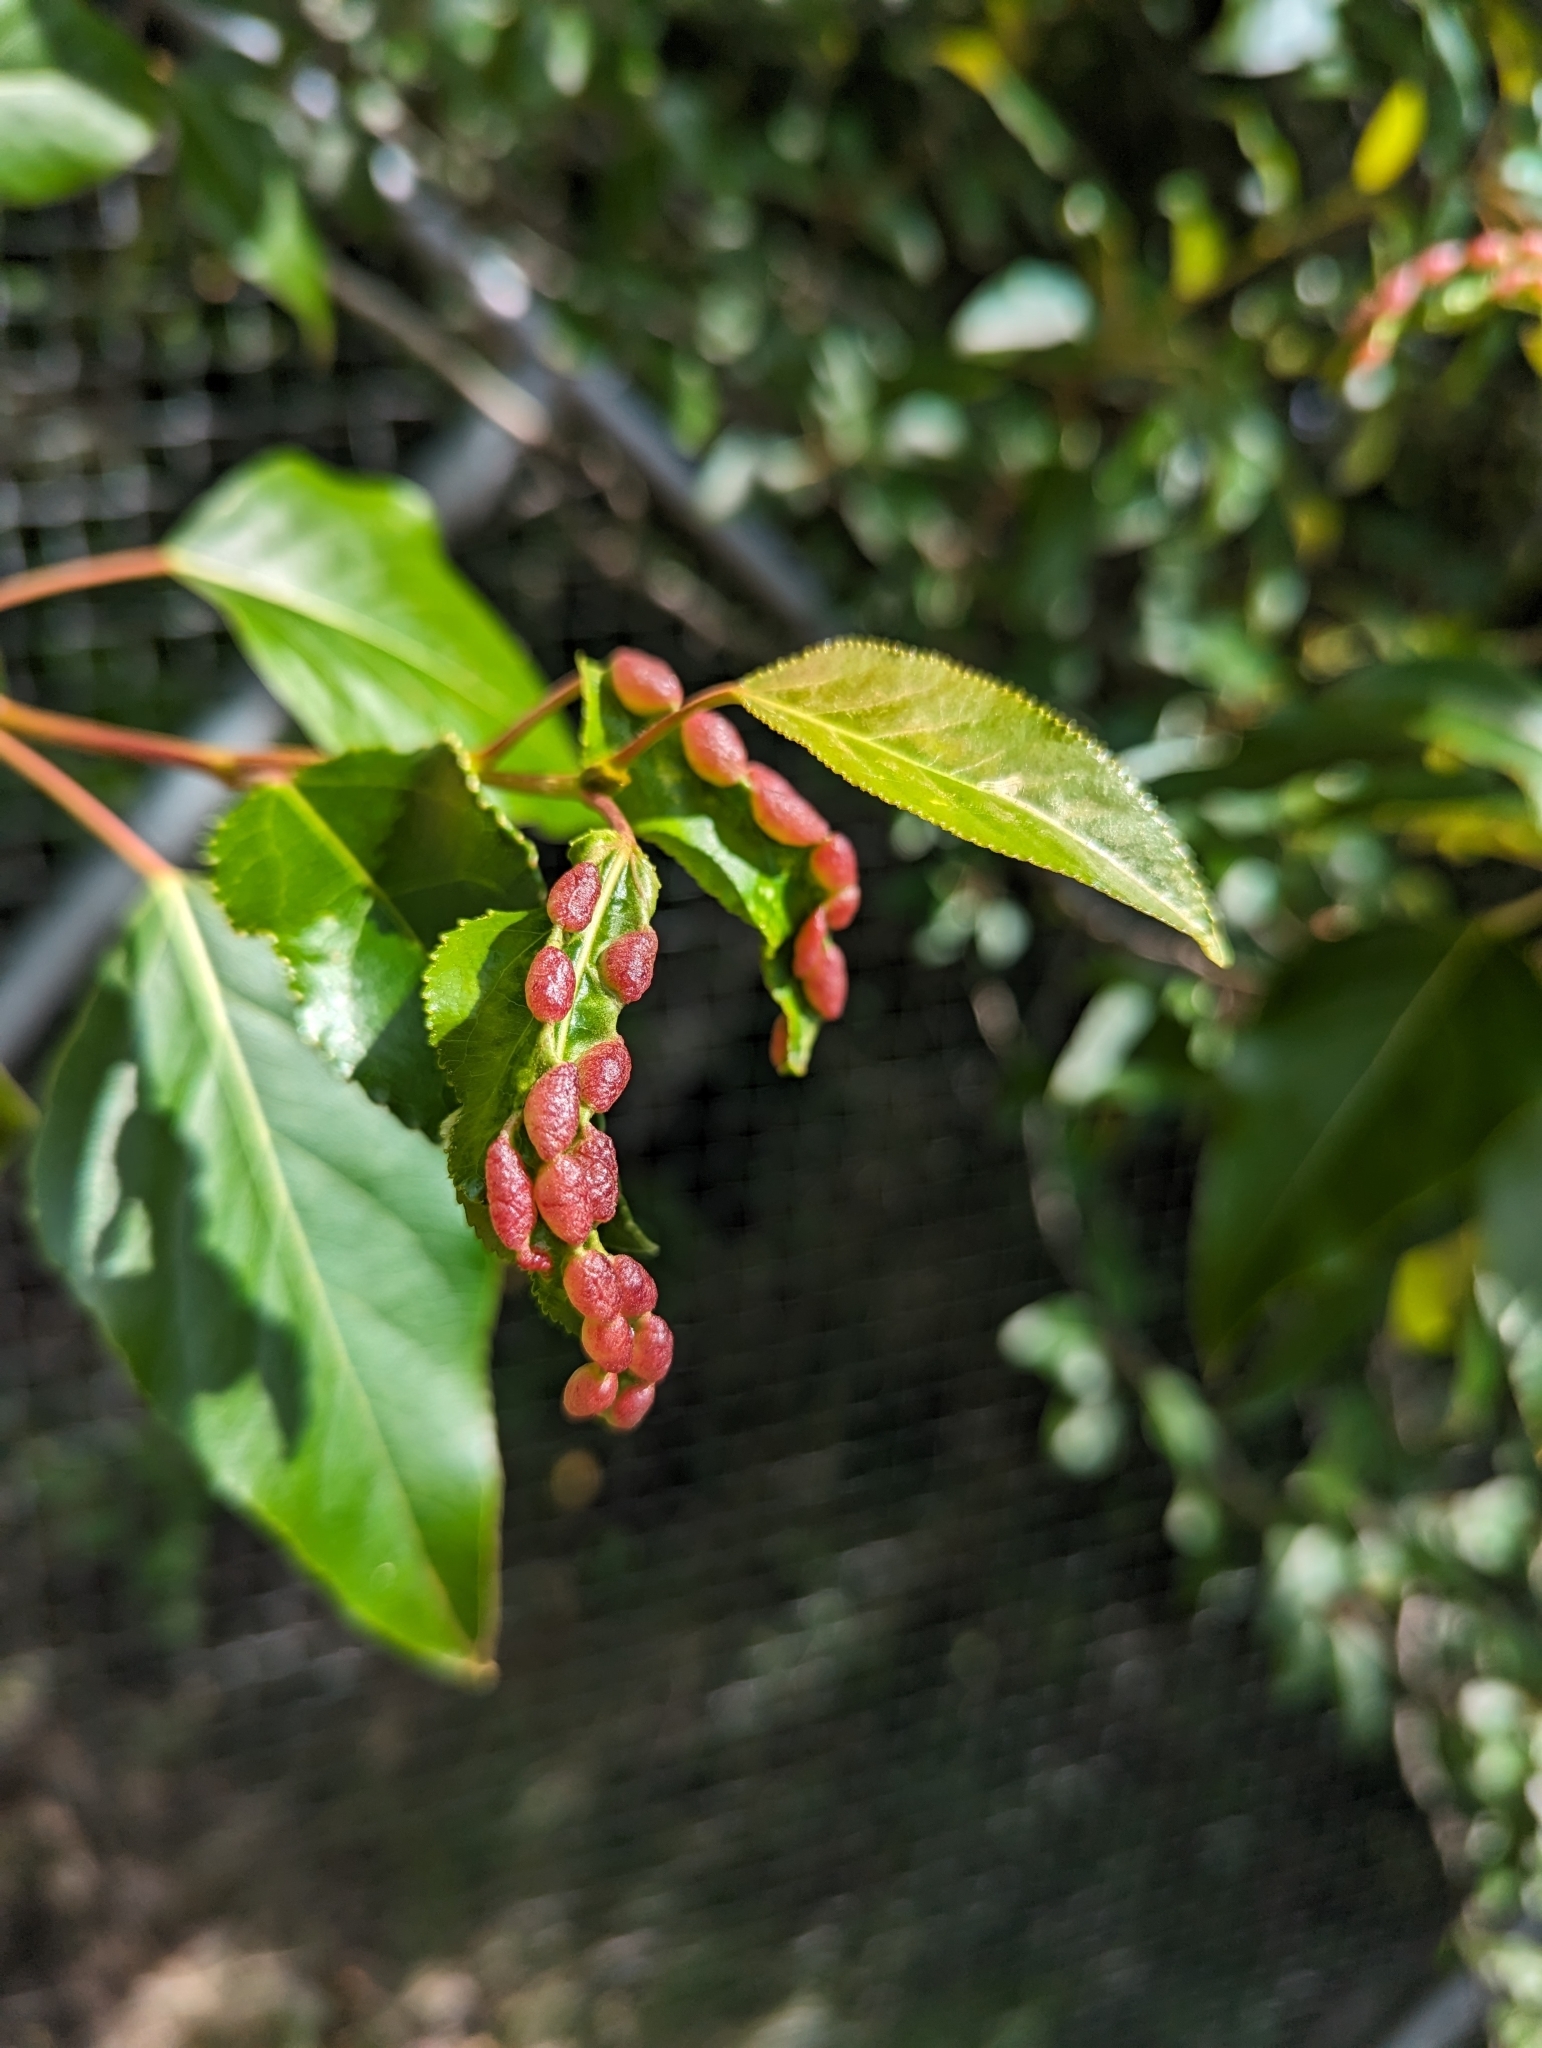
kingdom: Plantae
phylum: Tracheophyta
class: Magnoliopsida
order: Malpighiales
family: Salicaceae
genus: Populus
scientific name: Populus trichocarpa
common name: Black cottonwood
